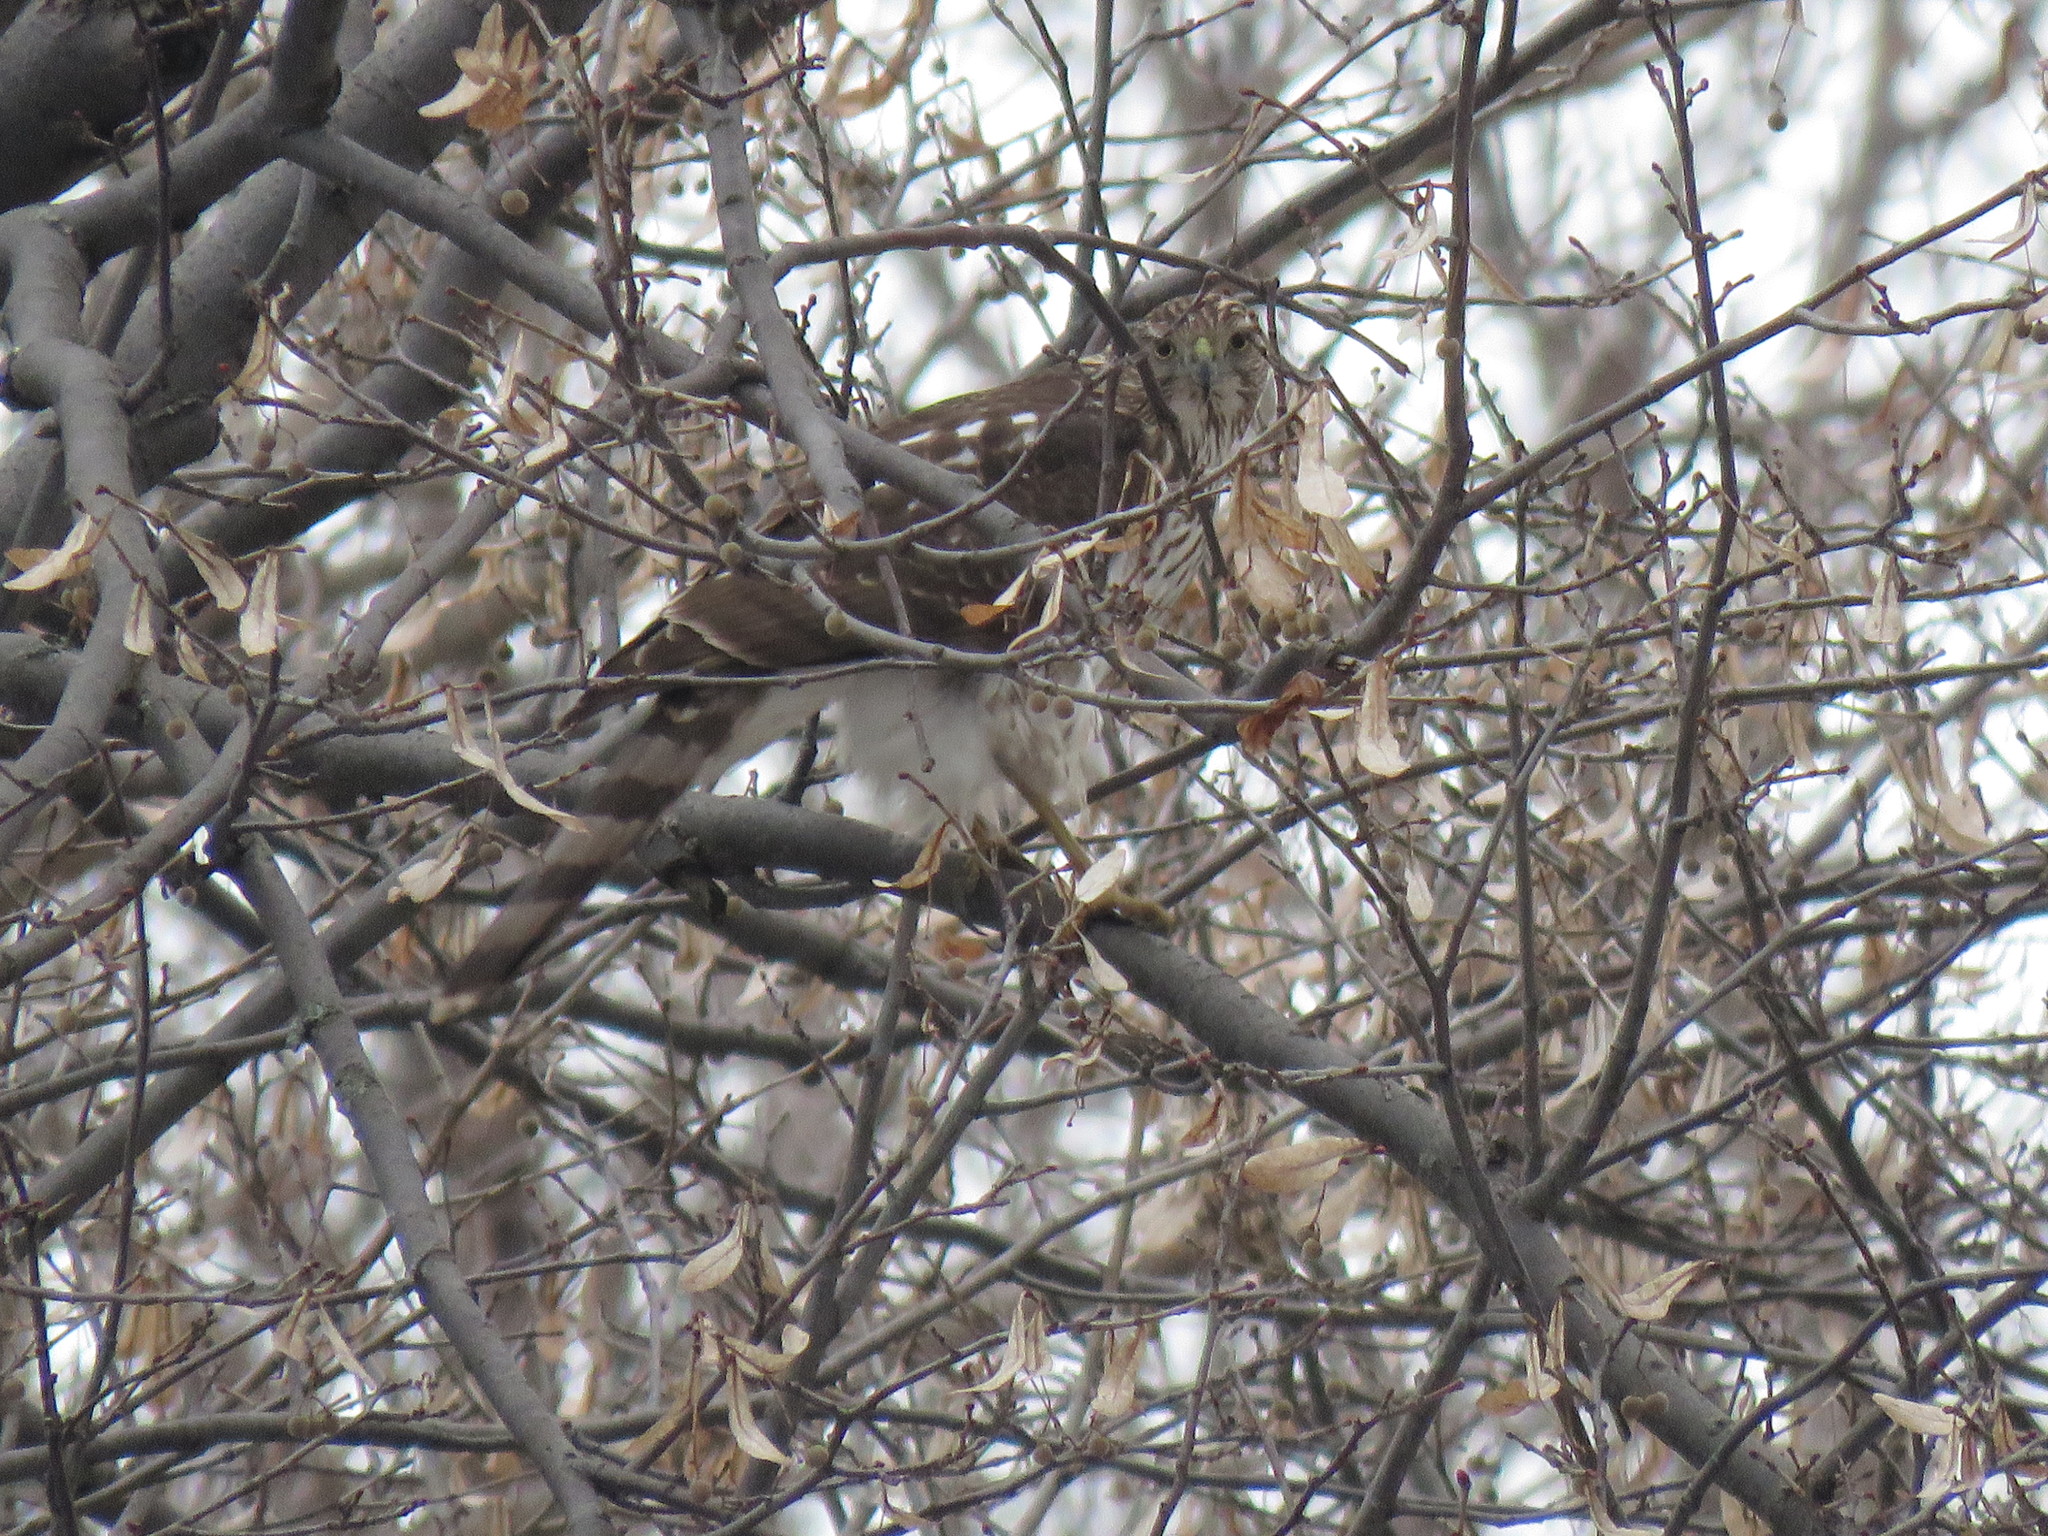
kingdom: Animalia
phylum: Chordata
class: Aves
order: Accipitriformes
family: Accipitridae
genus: Accipiter
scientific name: Accipiter cooperii
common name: Cooper's hawk
